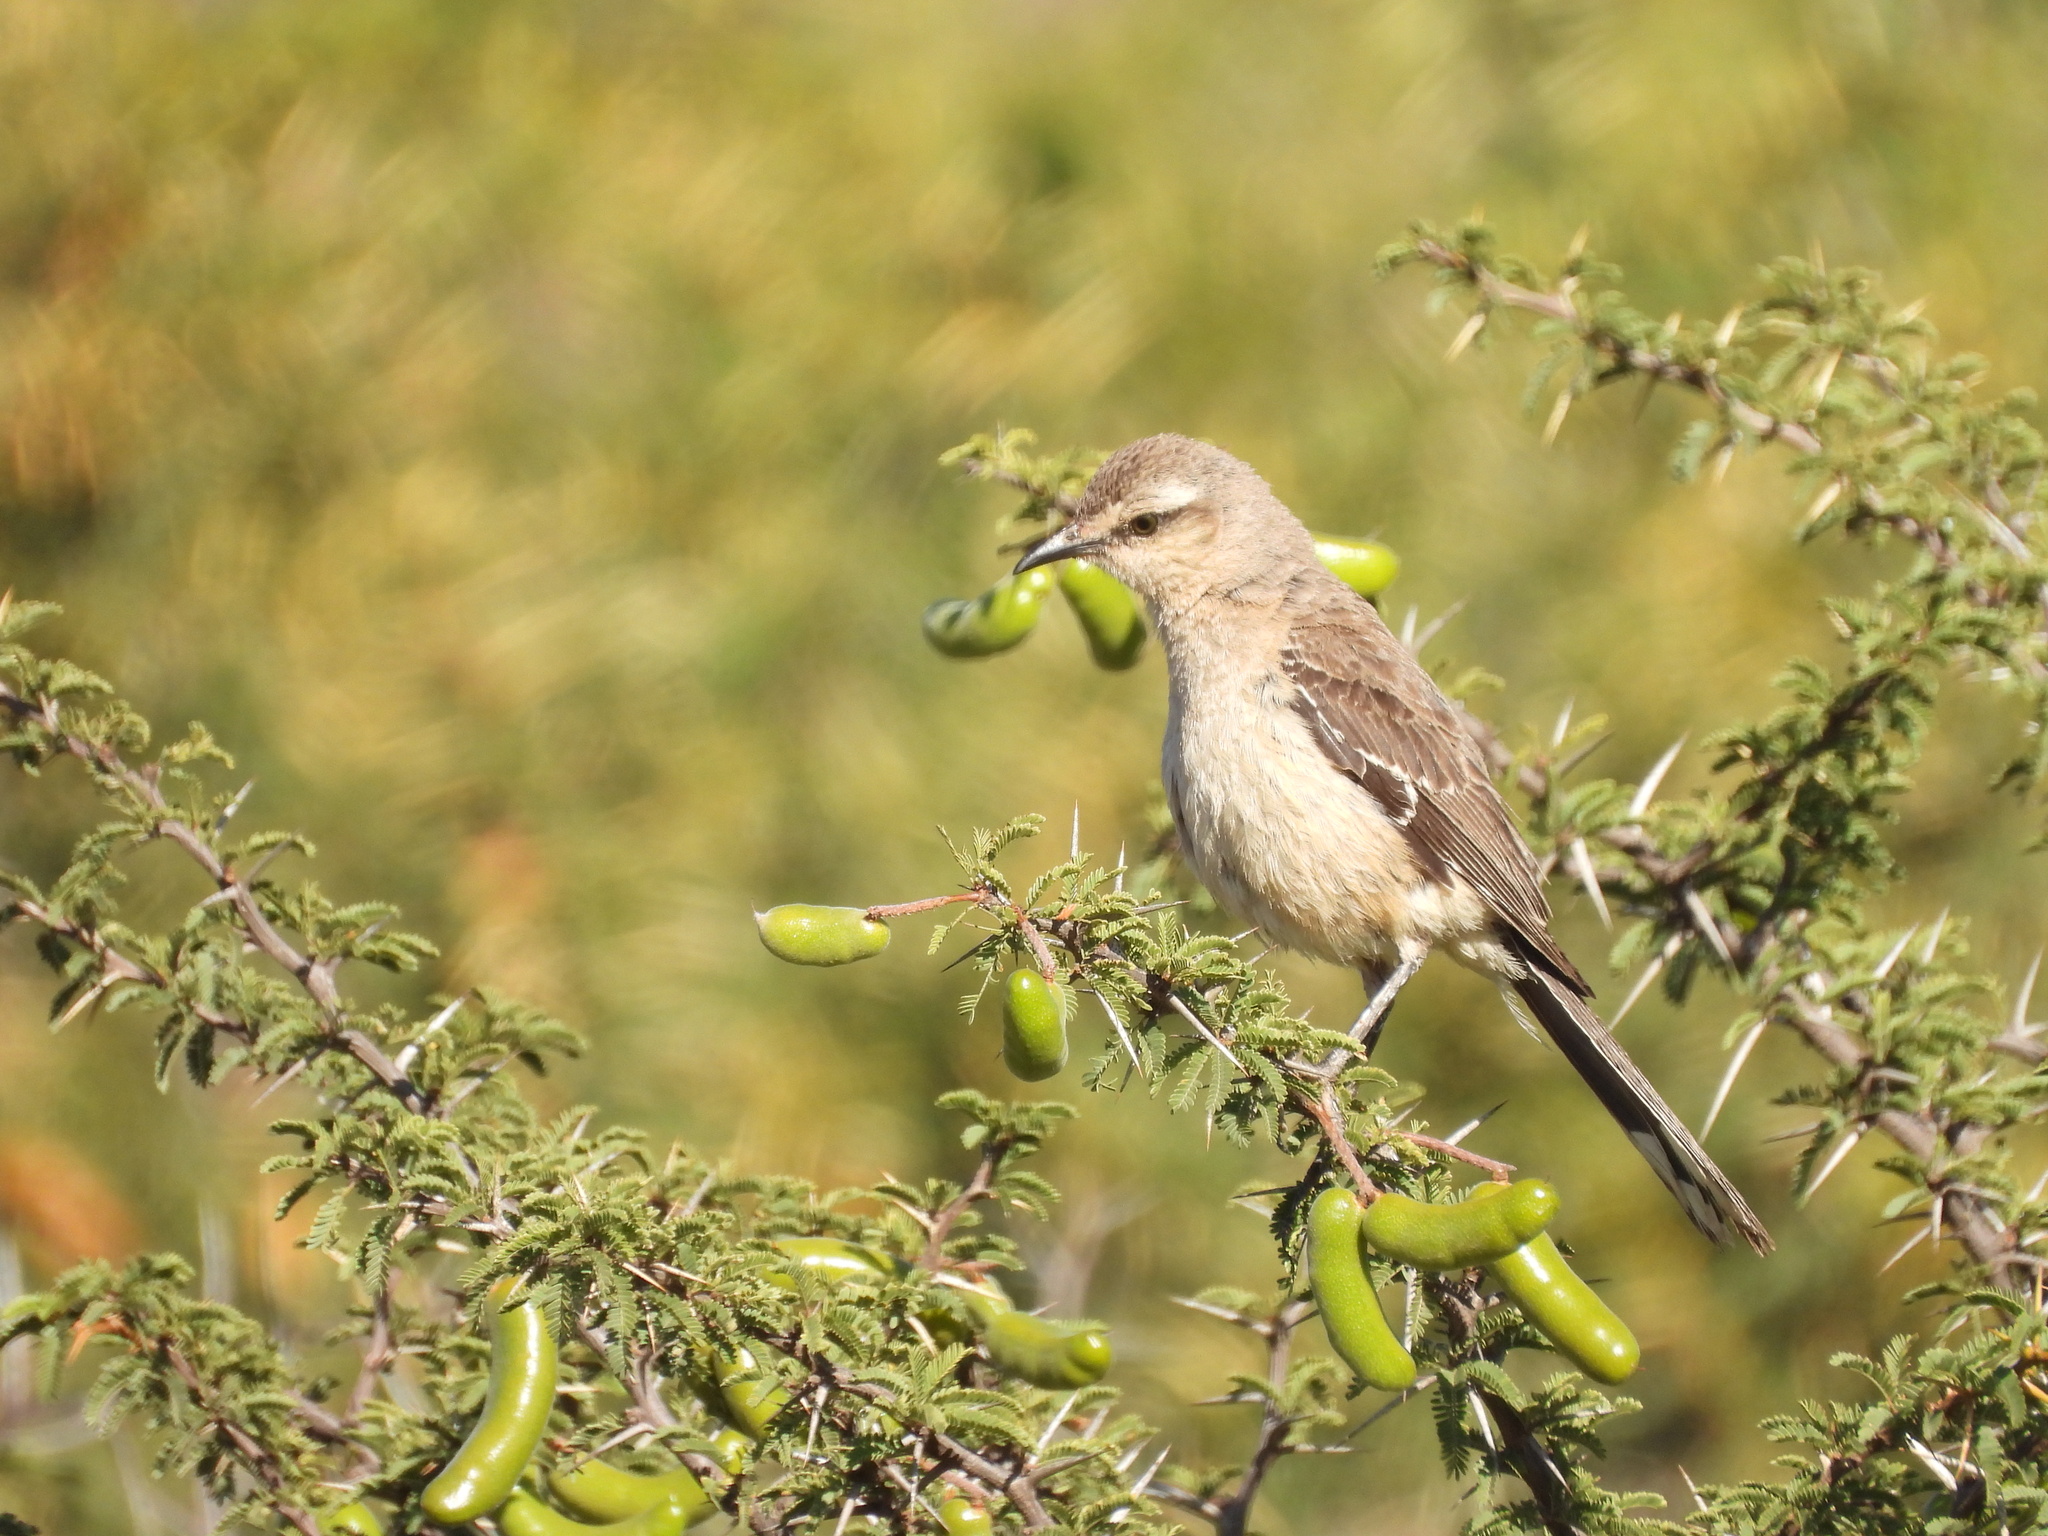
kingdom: Animalia
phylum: Chordata
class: Aves
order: Passeriformes
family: Mimidae
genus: Mimus
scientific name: Mimus patagonicus
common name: Patagonian mockingbird
